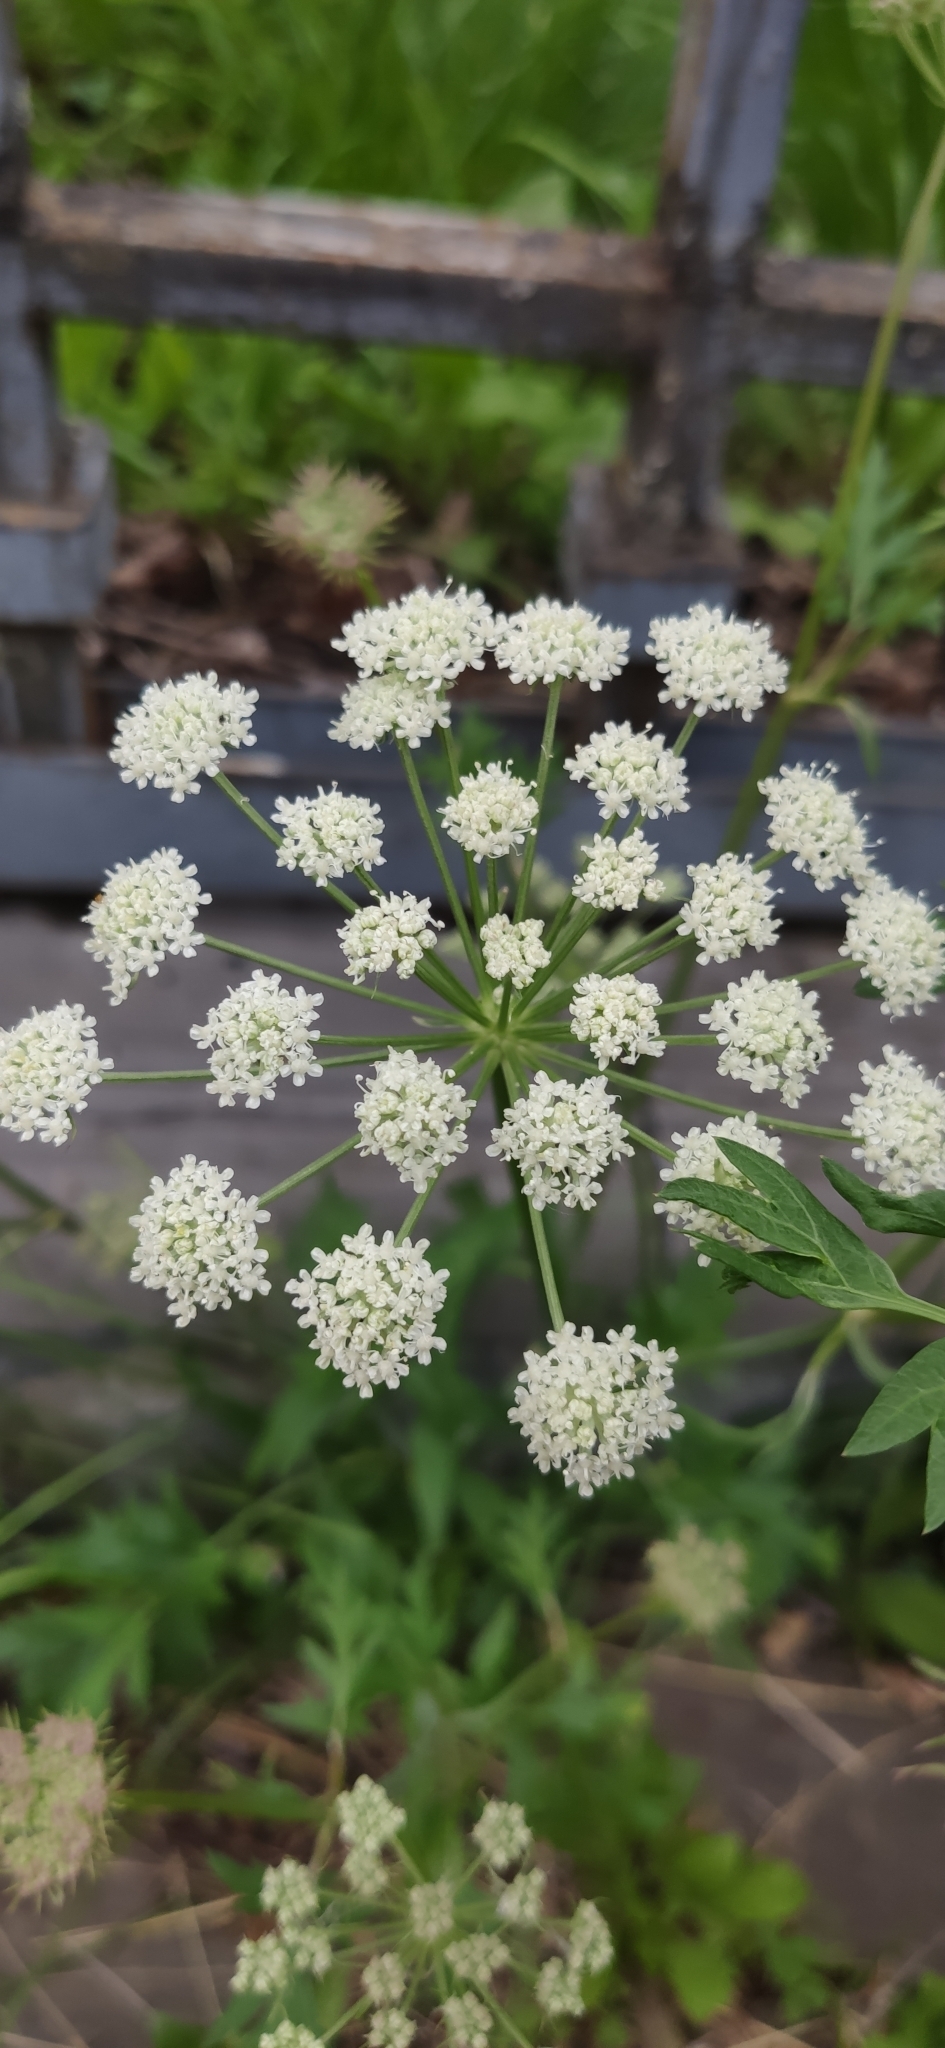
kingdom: Plantae
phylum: Tracheophyta
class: Magnoliopsida
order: Apiales
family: Apiaceae
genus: Seseli
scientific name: Seseli libanotis
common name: Mooncarrot
